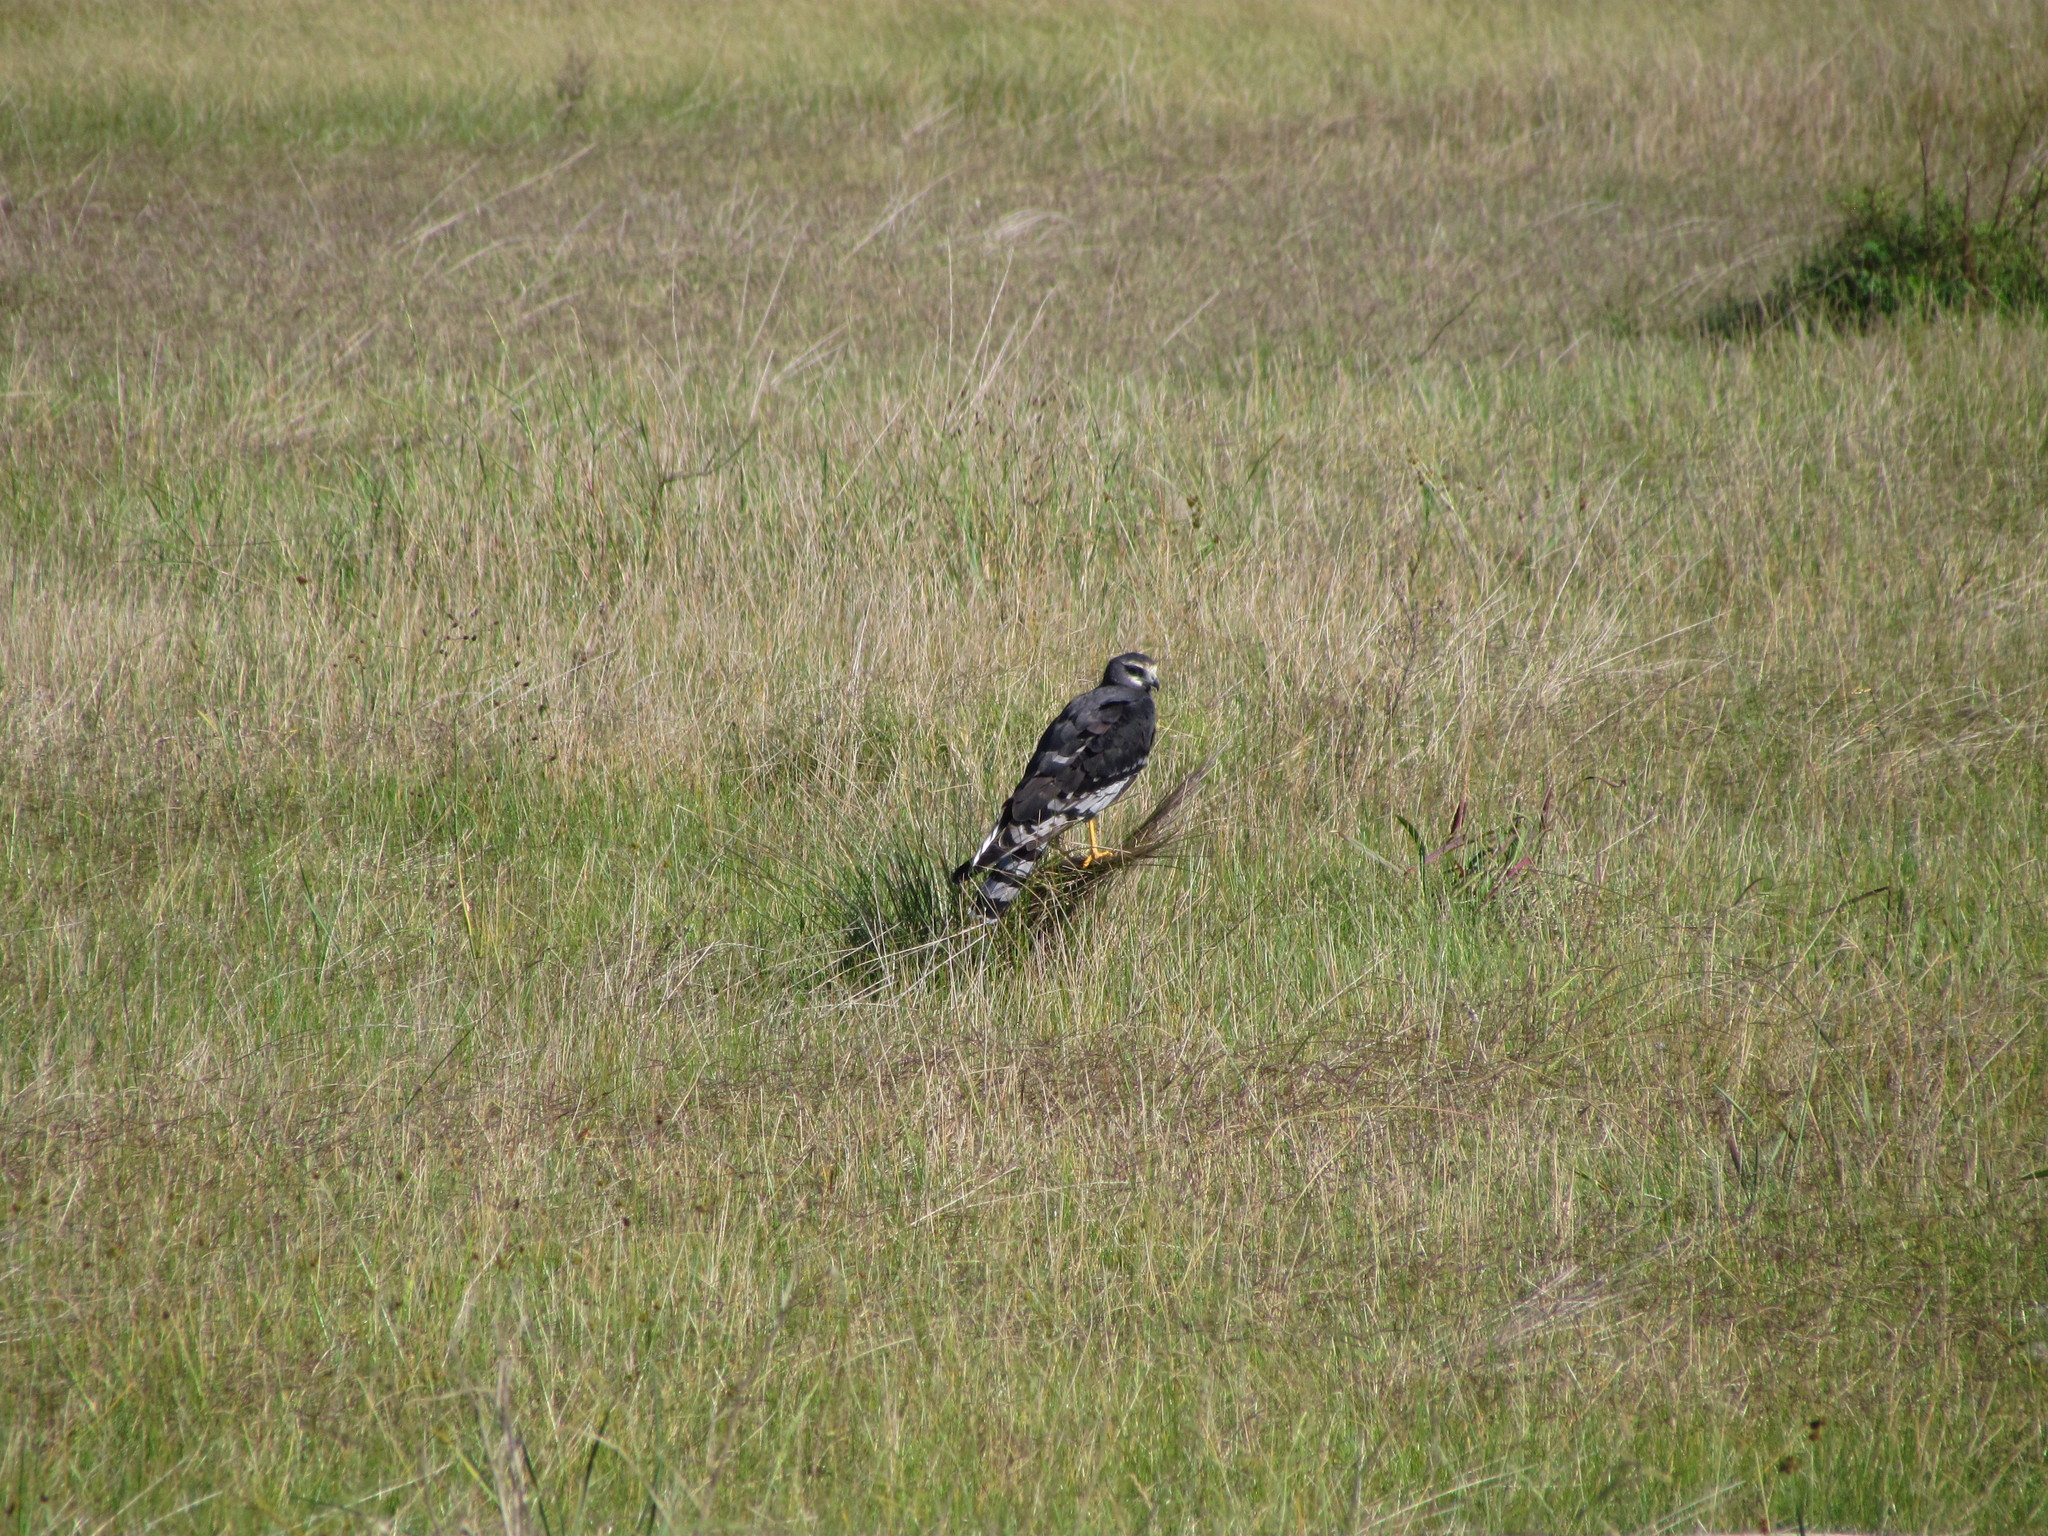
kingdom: Animalia
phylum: Chordata
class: Aves
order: Accipitriformes
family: Accipitridae
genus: Circus
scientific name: Circus buffoni
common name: Long-winged harrier
